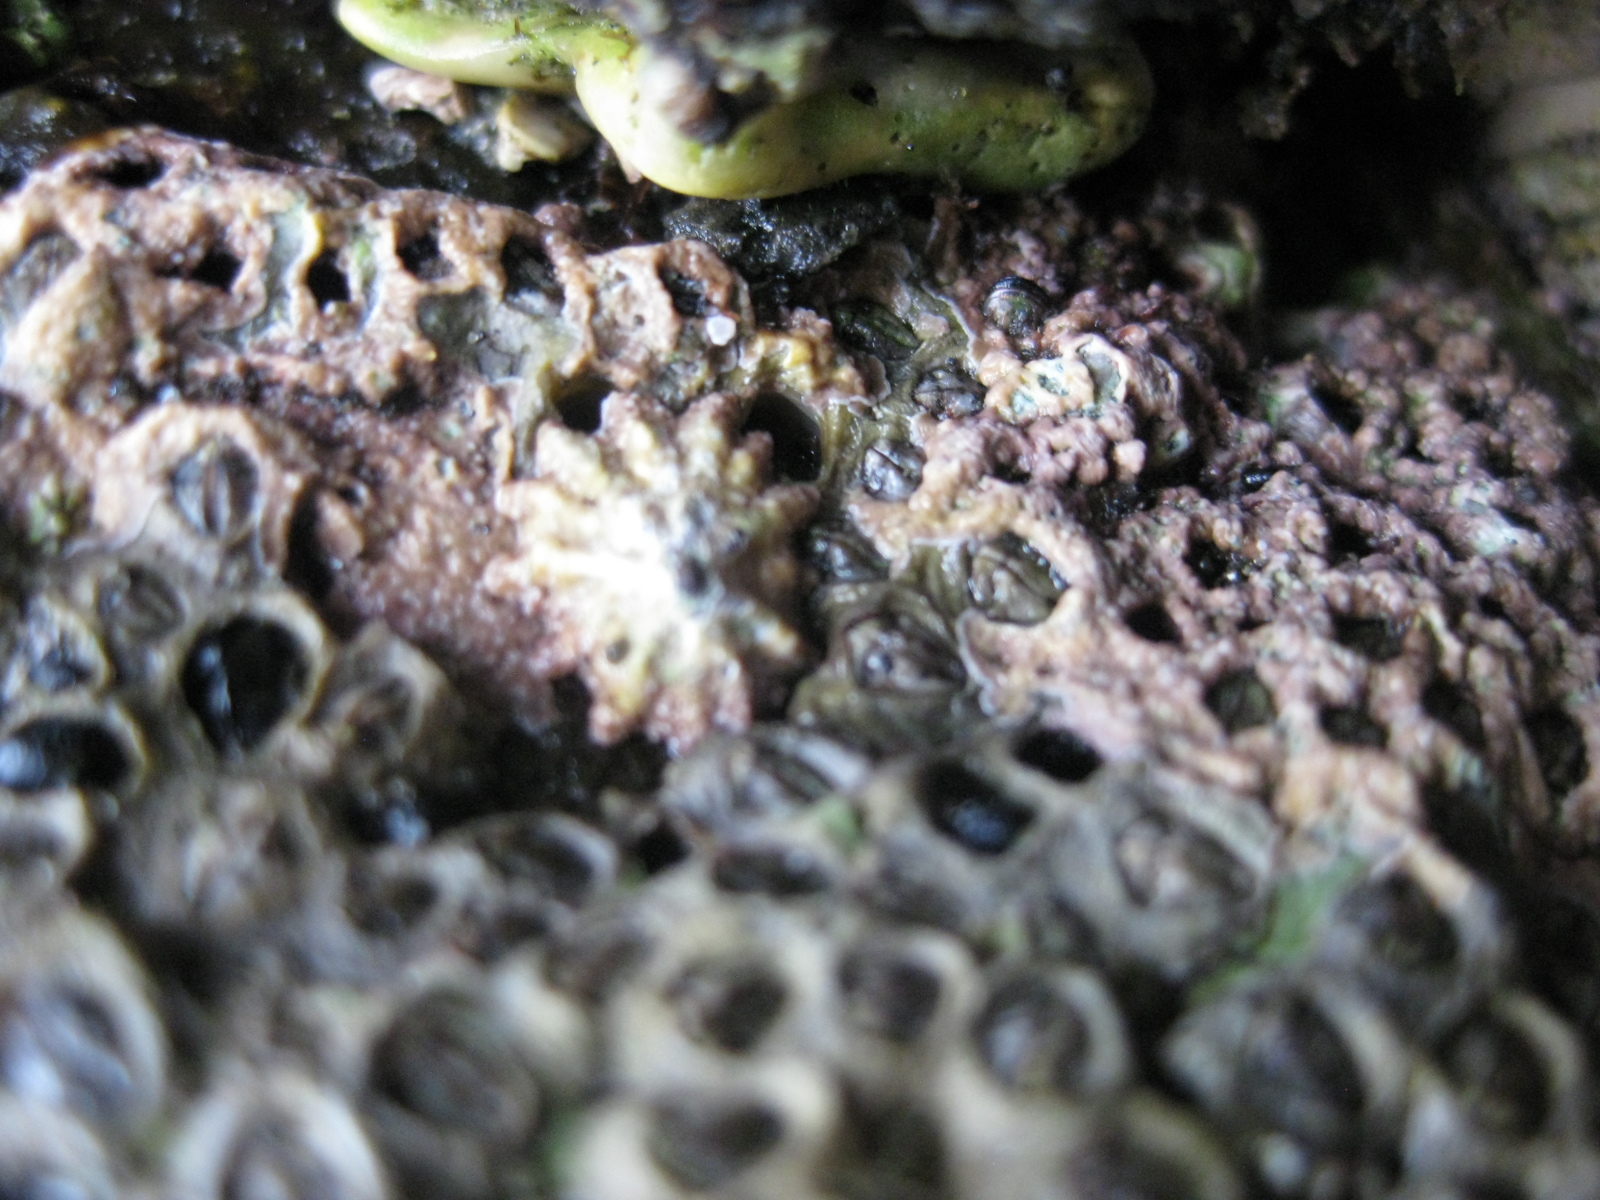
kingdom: Animalia
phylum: Mollusca
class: Gastropoda
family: Lottiidae
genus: Patelloida
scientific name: Patelloida corticata
